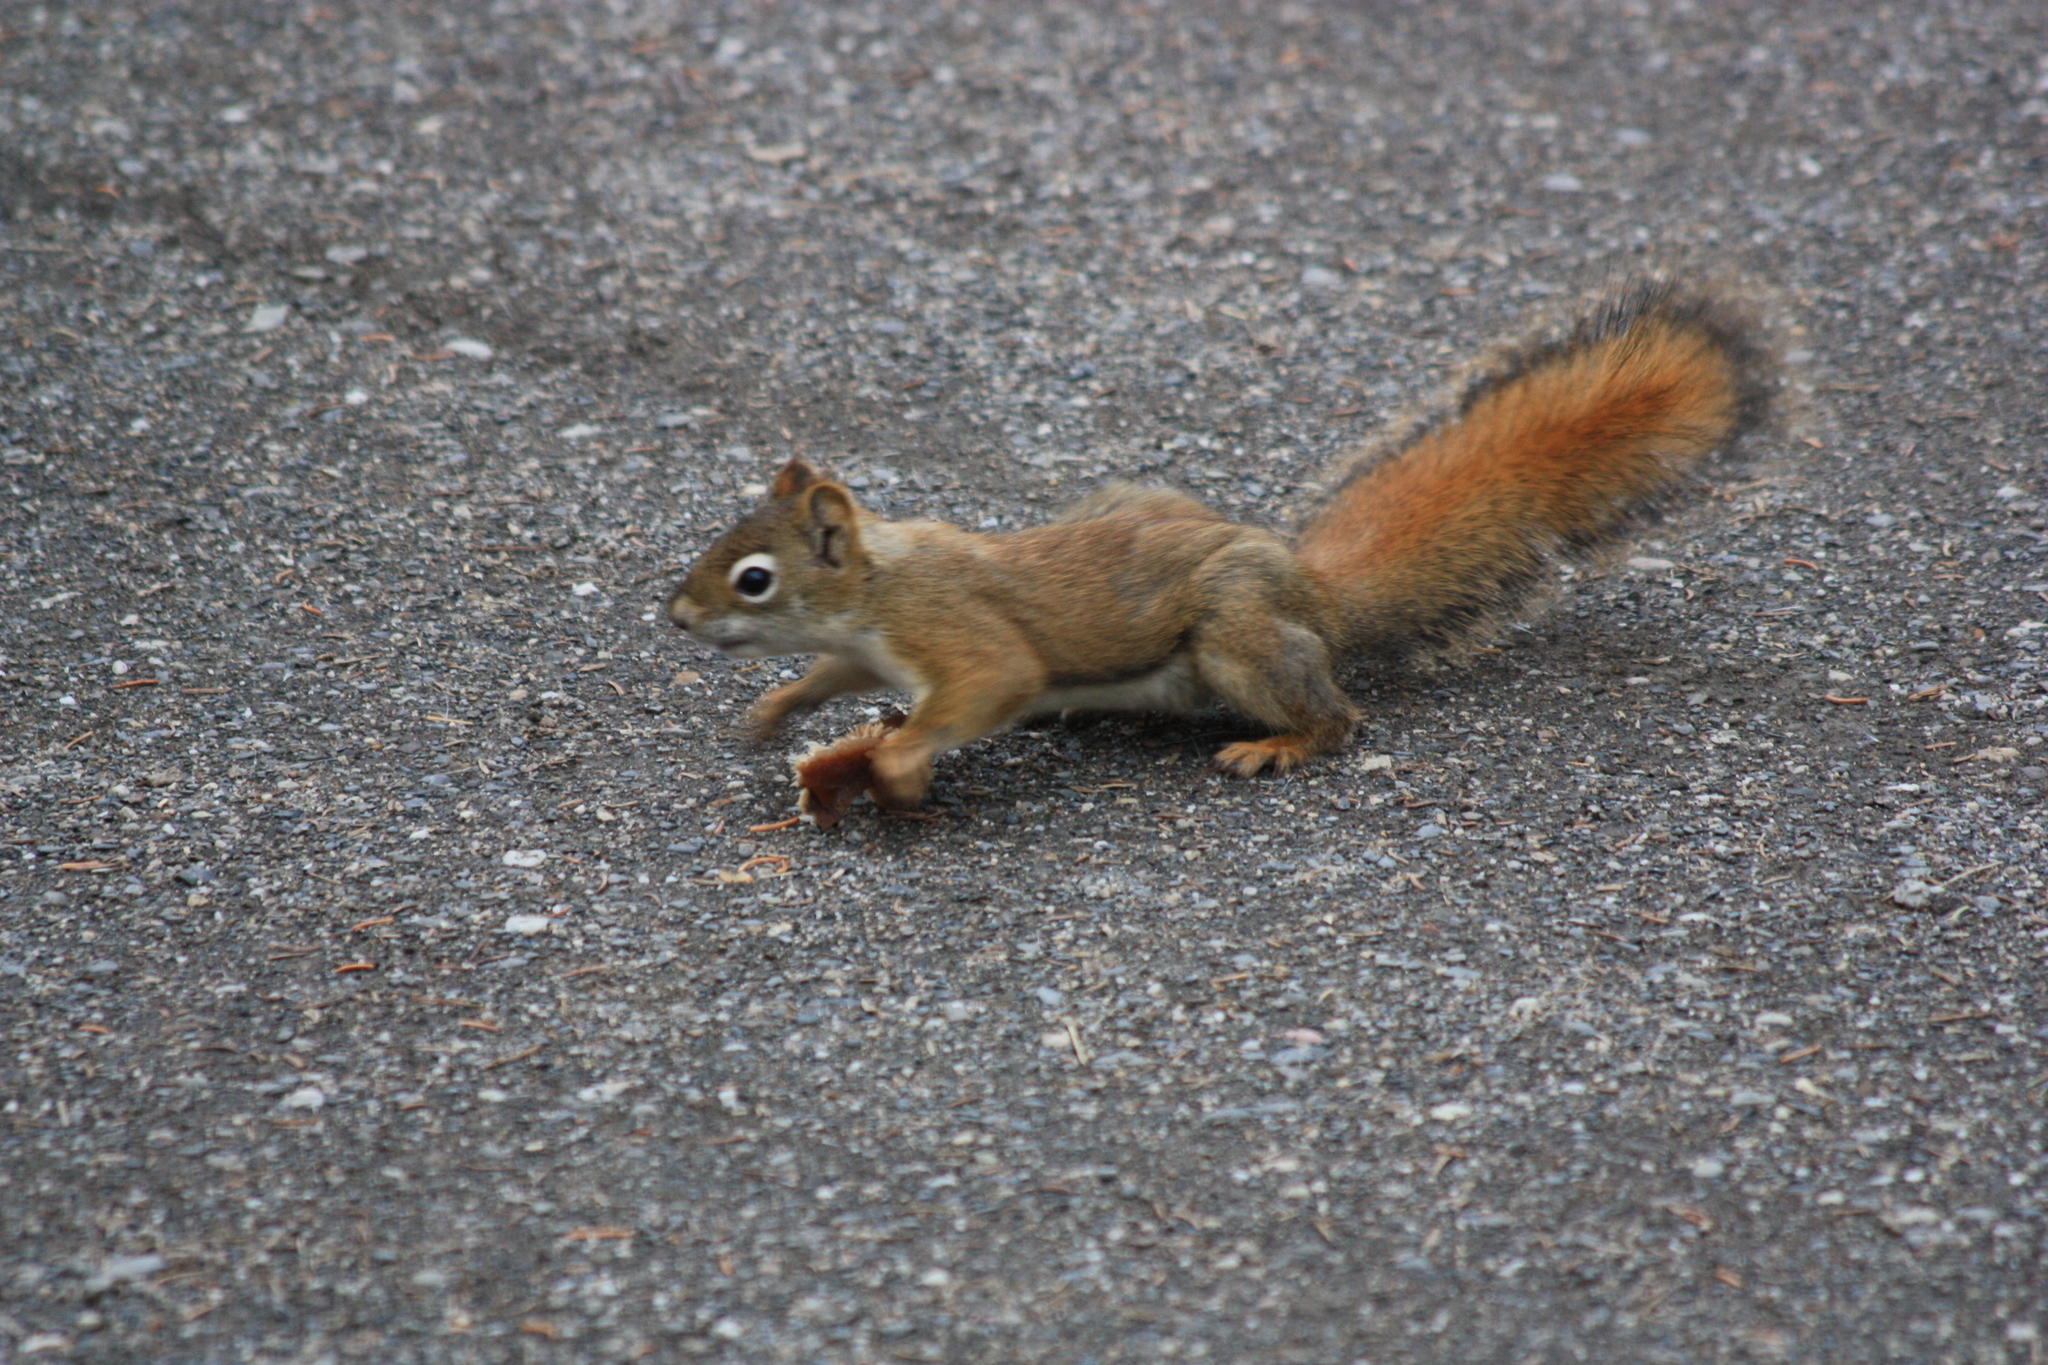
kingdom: Animalia
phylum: Chordata
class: Mammalia
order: Rodentia
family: Sciuridae
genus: Tamiasciurus
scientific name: Tamiasciurus hudsonicus
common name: Red squirrel
